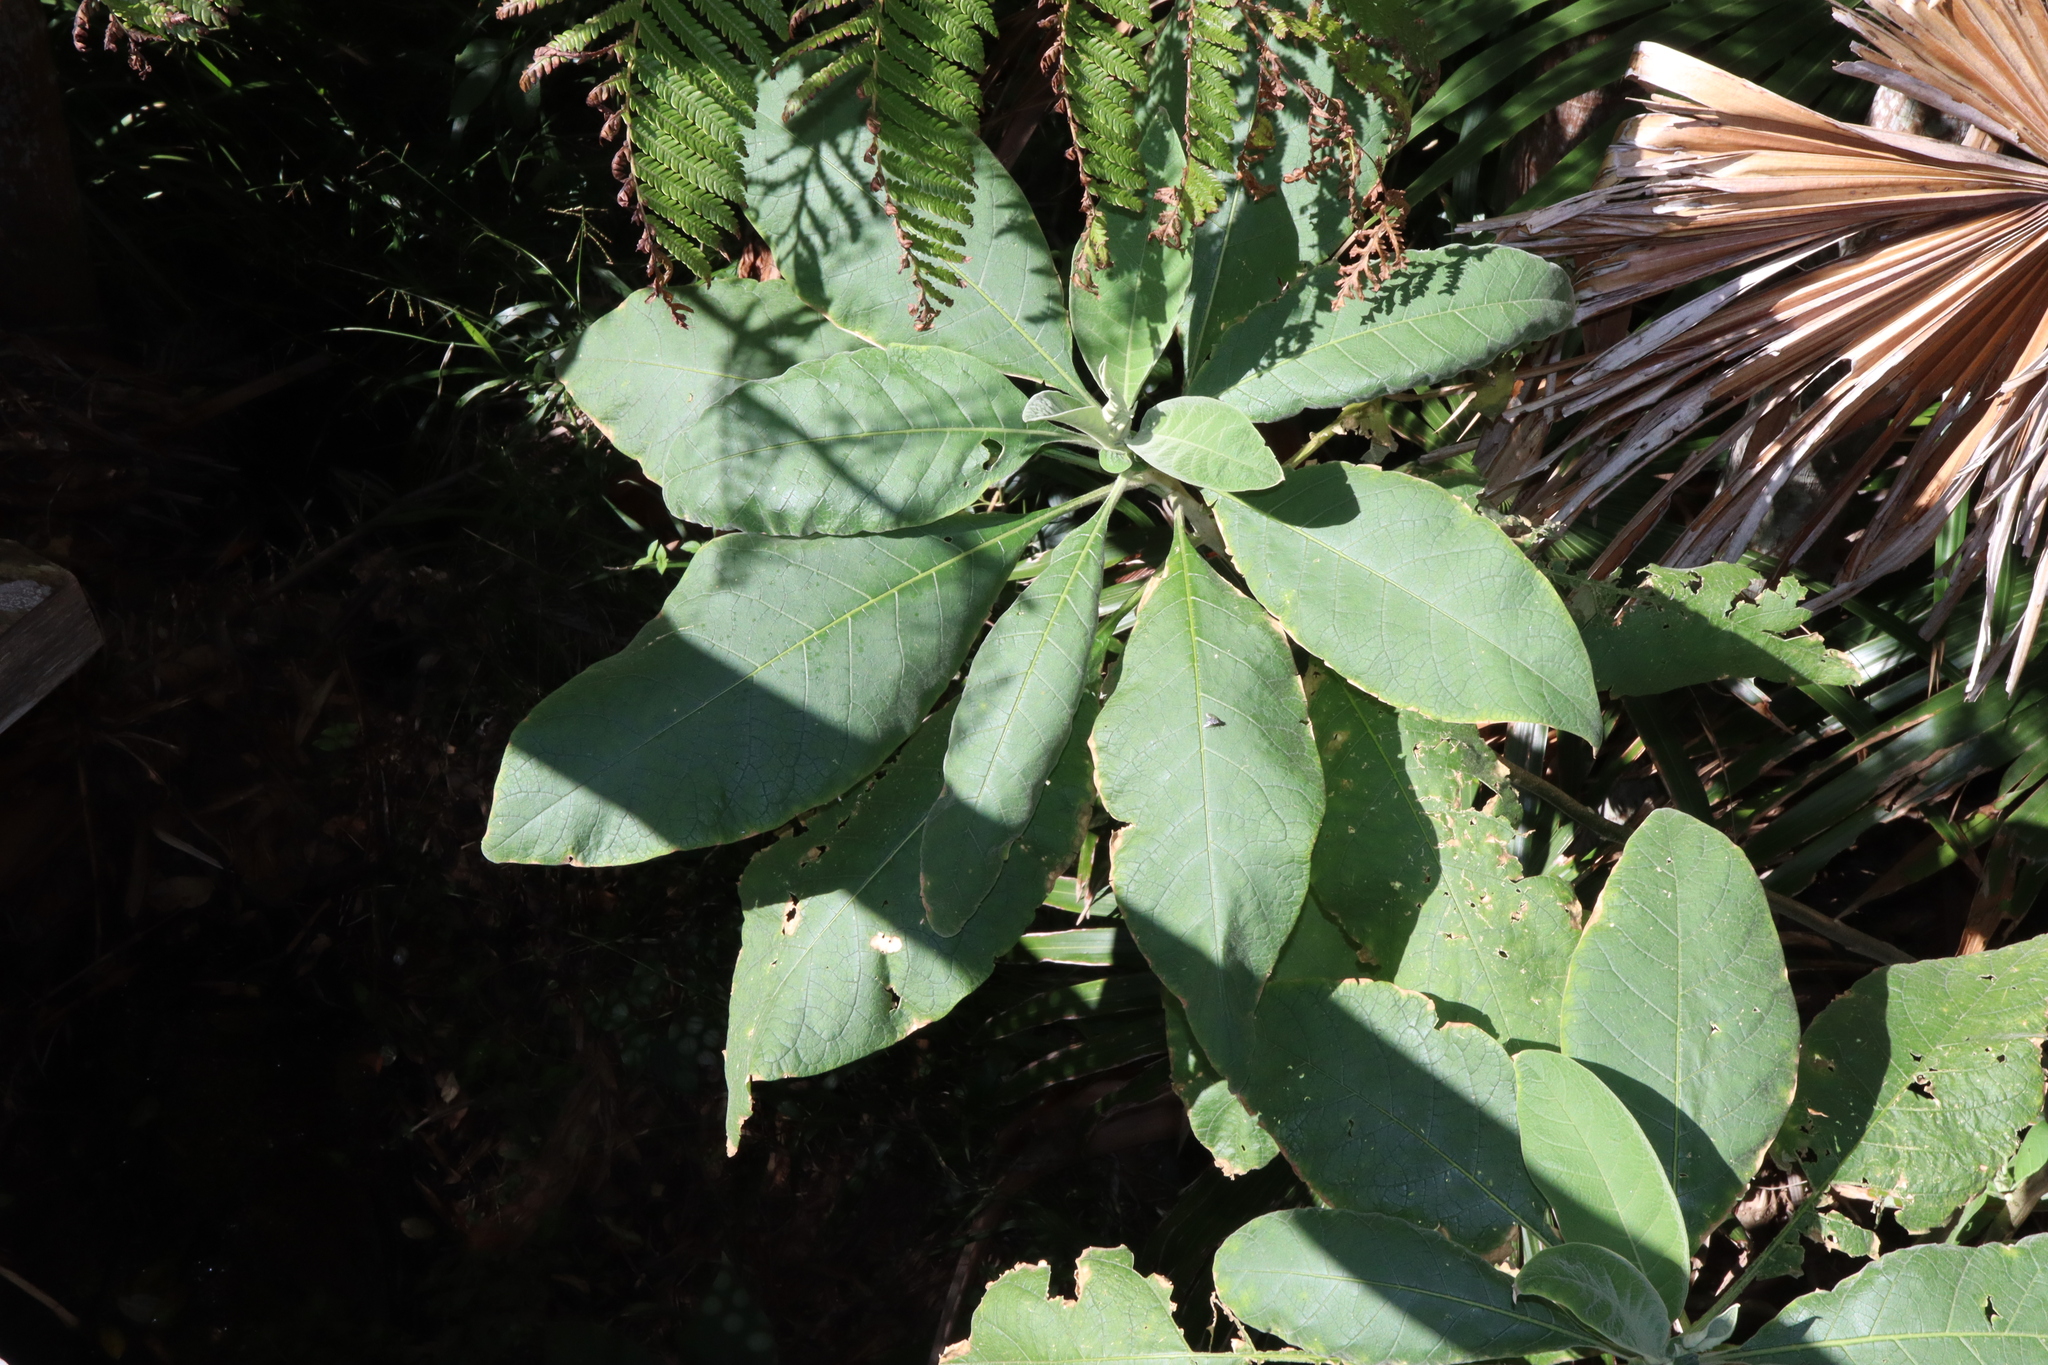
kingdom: Plantae
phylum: Tracheophyta
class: Magnoliopsida
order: Solanales
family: Solanaceae
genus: Solanum
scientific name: Solanum mauritianum
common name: Earleaf nightshade
